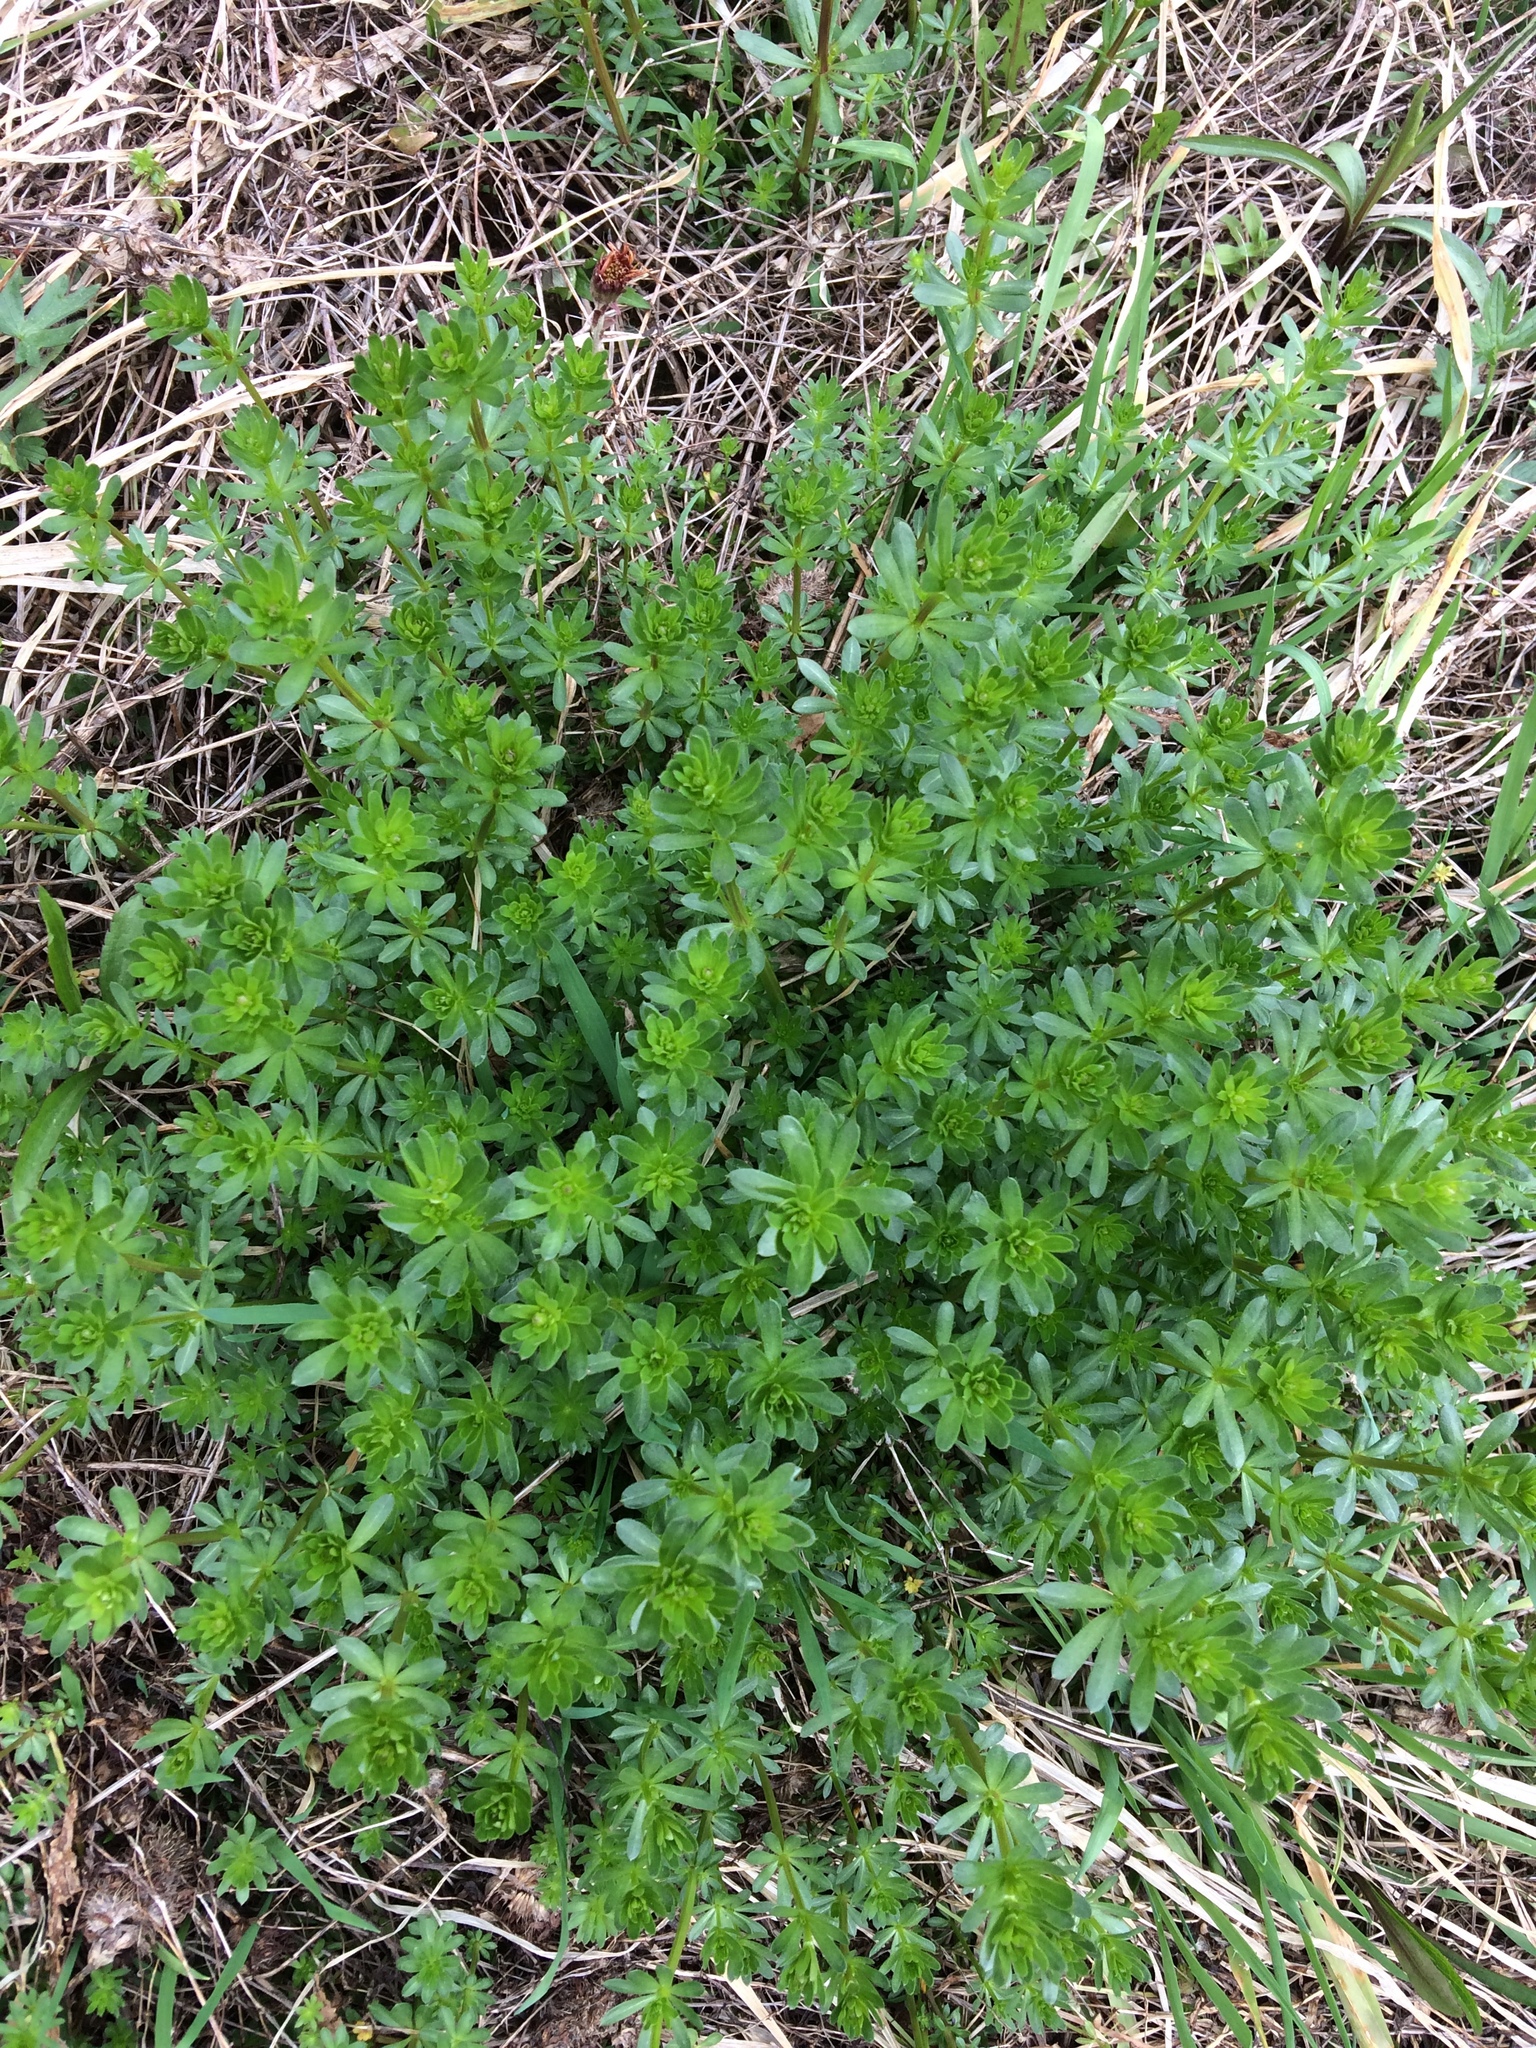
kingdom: Plantae
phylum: Tracheophyta
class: Magnoliopsida
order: Gentianales
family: Rubiaceae
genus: Galium
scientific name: Galium mollugo
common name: Hedge bedstraw
